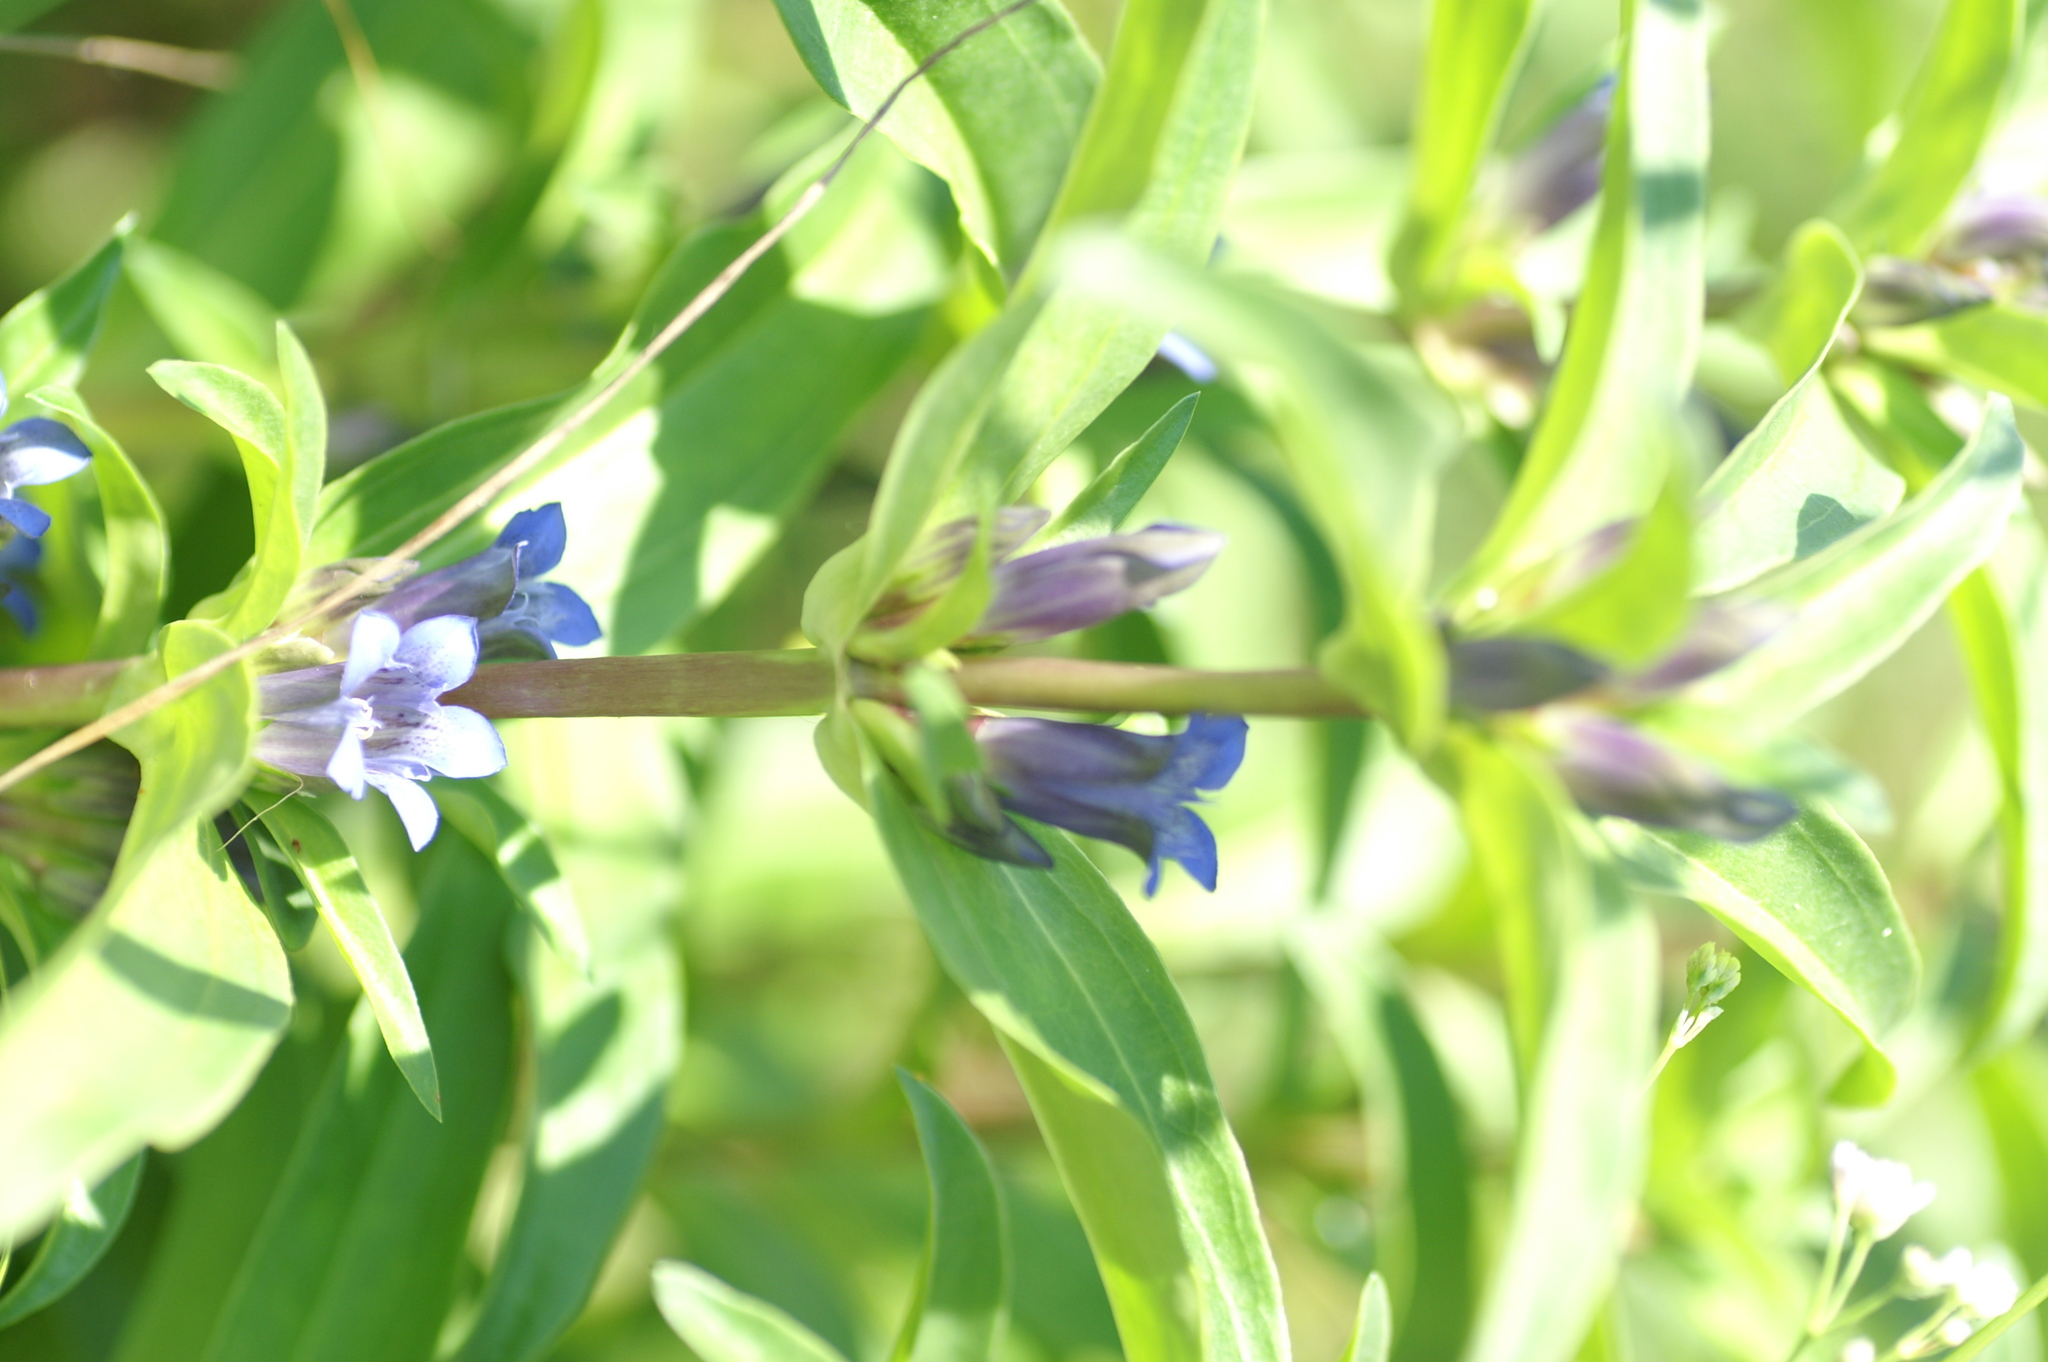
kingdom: Plantae
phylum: Tracheophyta
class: Magnoliopsida
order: Gentianales
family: Gentianaceae
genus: Gentiana
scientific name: Gentiana cruciata
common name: Cross gentian
